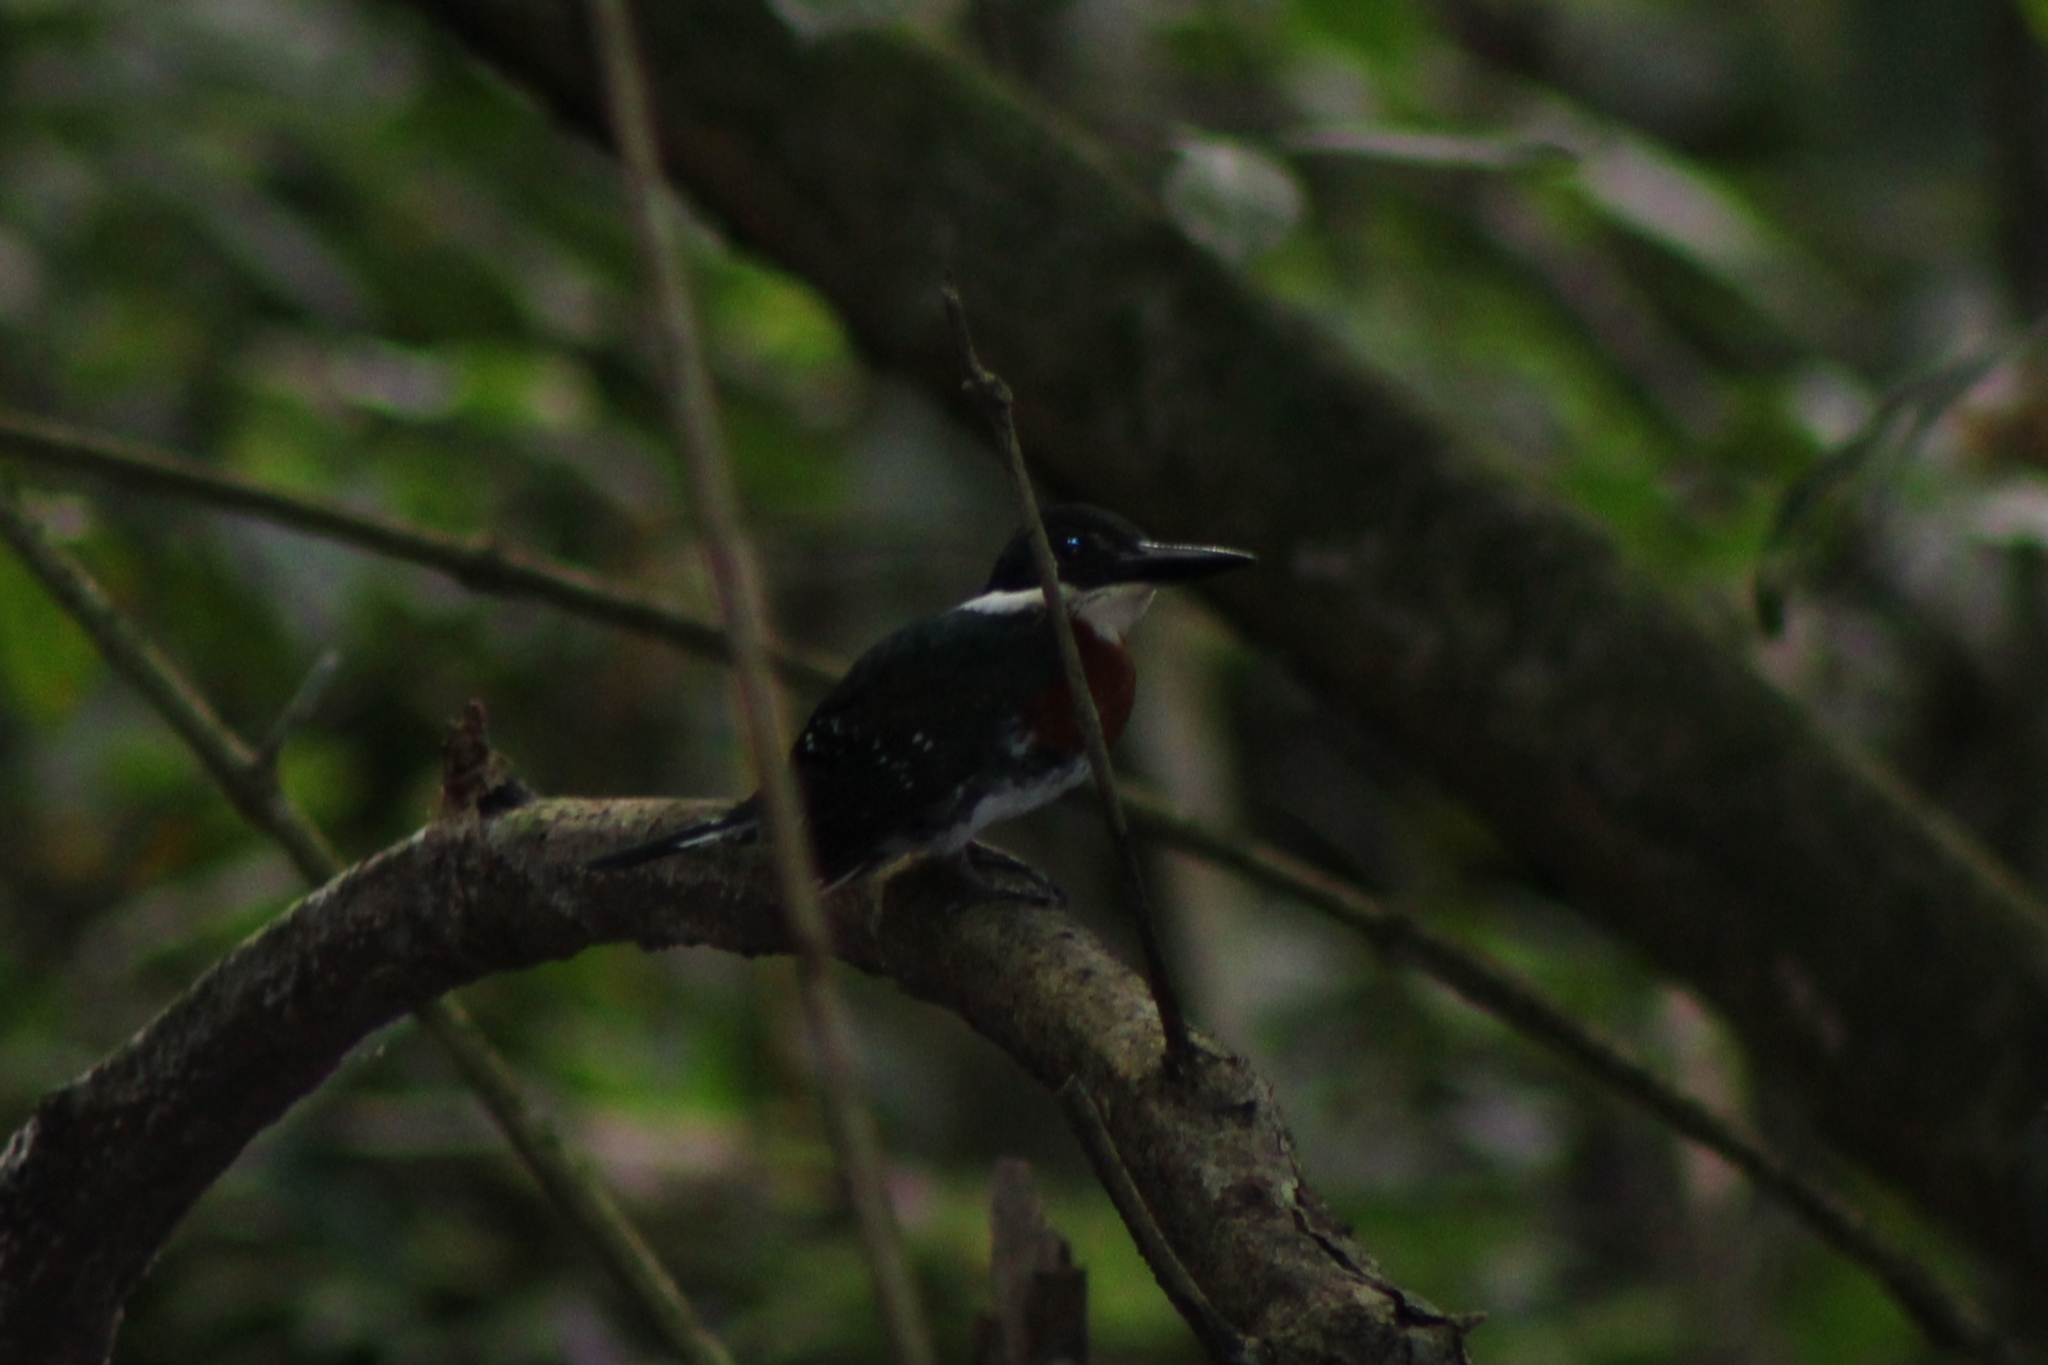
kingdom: Animalia
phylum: Chordata
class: Aves
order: Coraciiformes
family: Alcedinidae
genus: Chloroceryle
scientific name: Chloroceryle americana
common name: Green kingfisher
